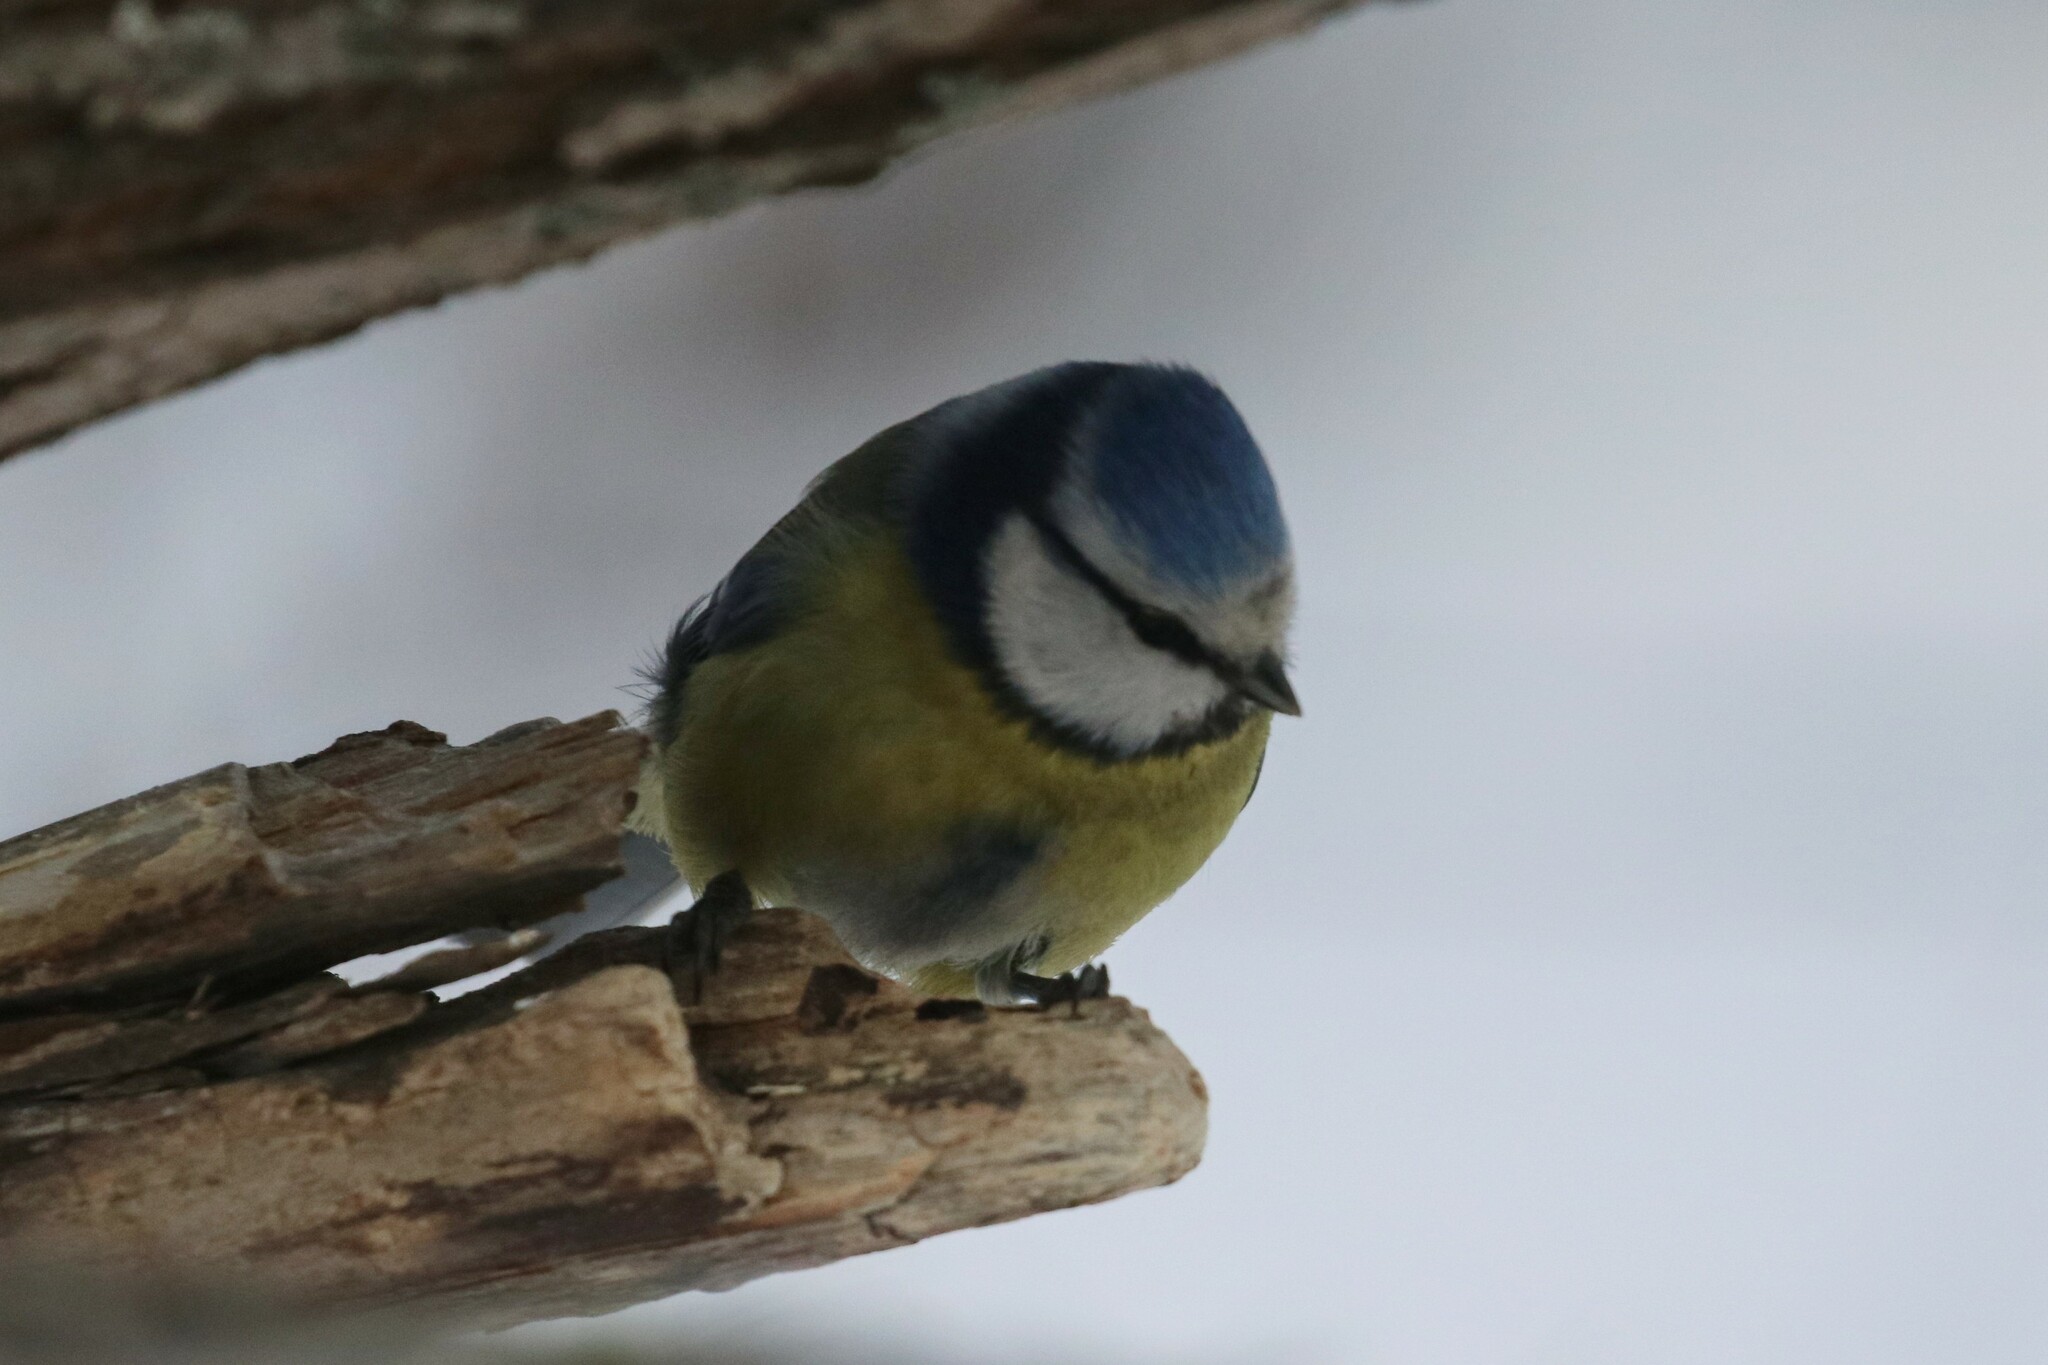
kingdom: Animalia
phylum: Chordata
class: Aves
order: Passeriformes
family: Paridae
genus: Cyanistes
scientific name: Cyanistes caeruleus
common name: Eurasian blue tit
